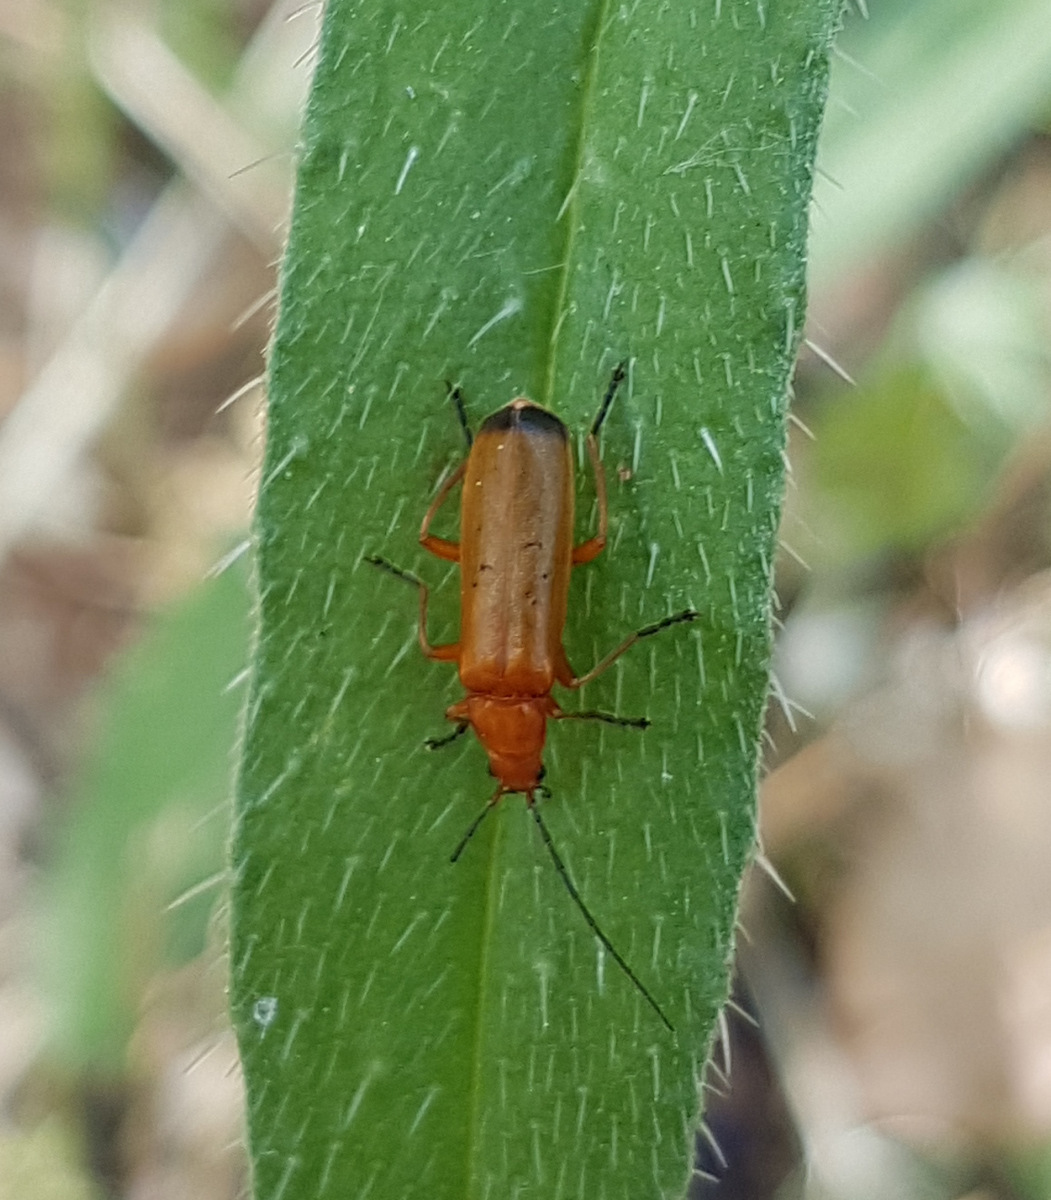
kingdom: Animalia
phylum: Arthropoda
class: Insecta
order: Coleoptera
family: Cantharidae
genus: Rhagonycha
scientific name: Rhagonycha fulva
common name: Common red soldier beetle
